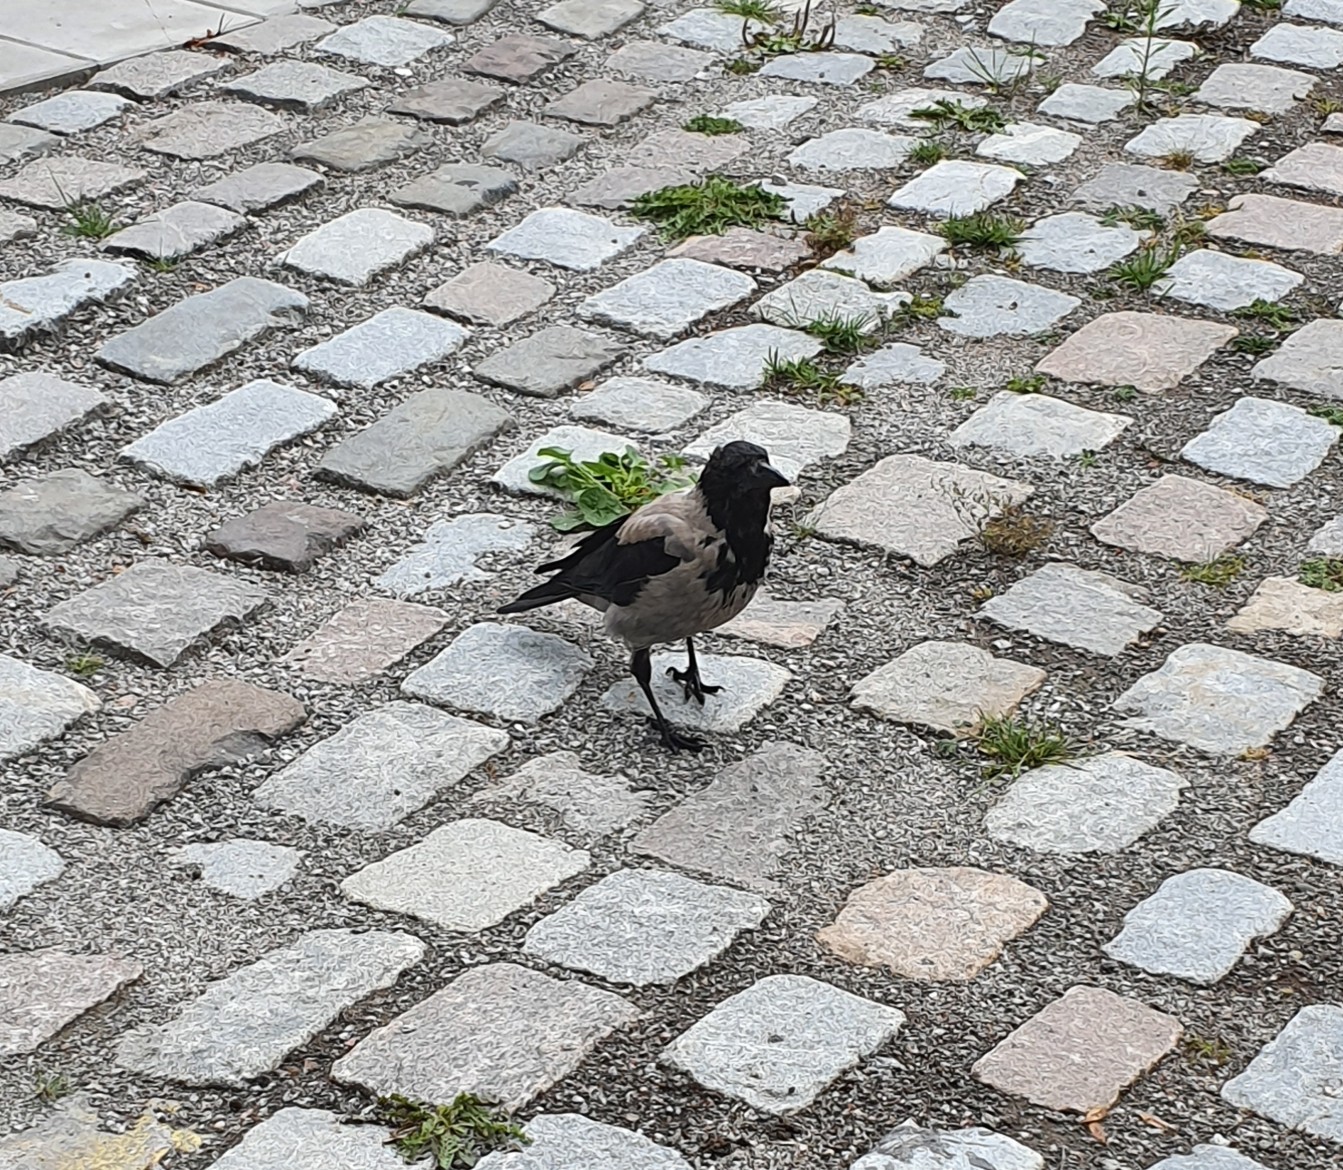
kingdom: Animalia
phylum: Chordata
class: Aves
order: Passeriformes
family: Corvidae
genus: Corvus
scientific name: Corvus cornix
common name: Hooded crow
